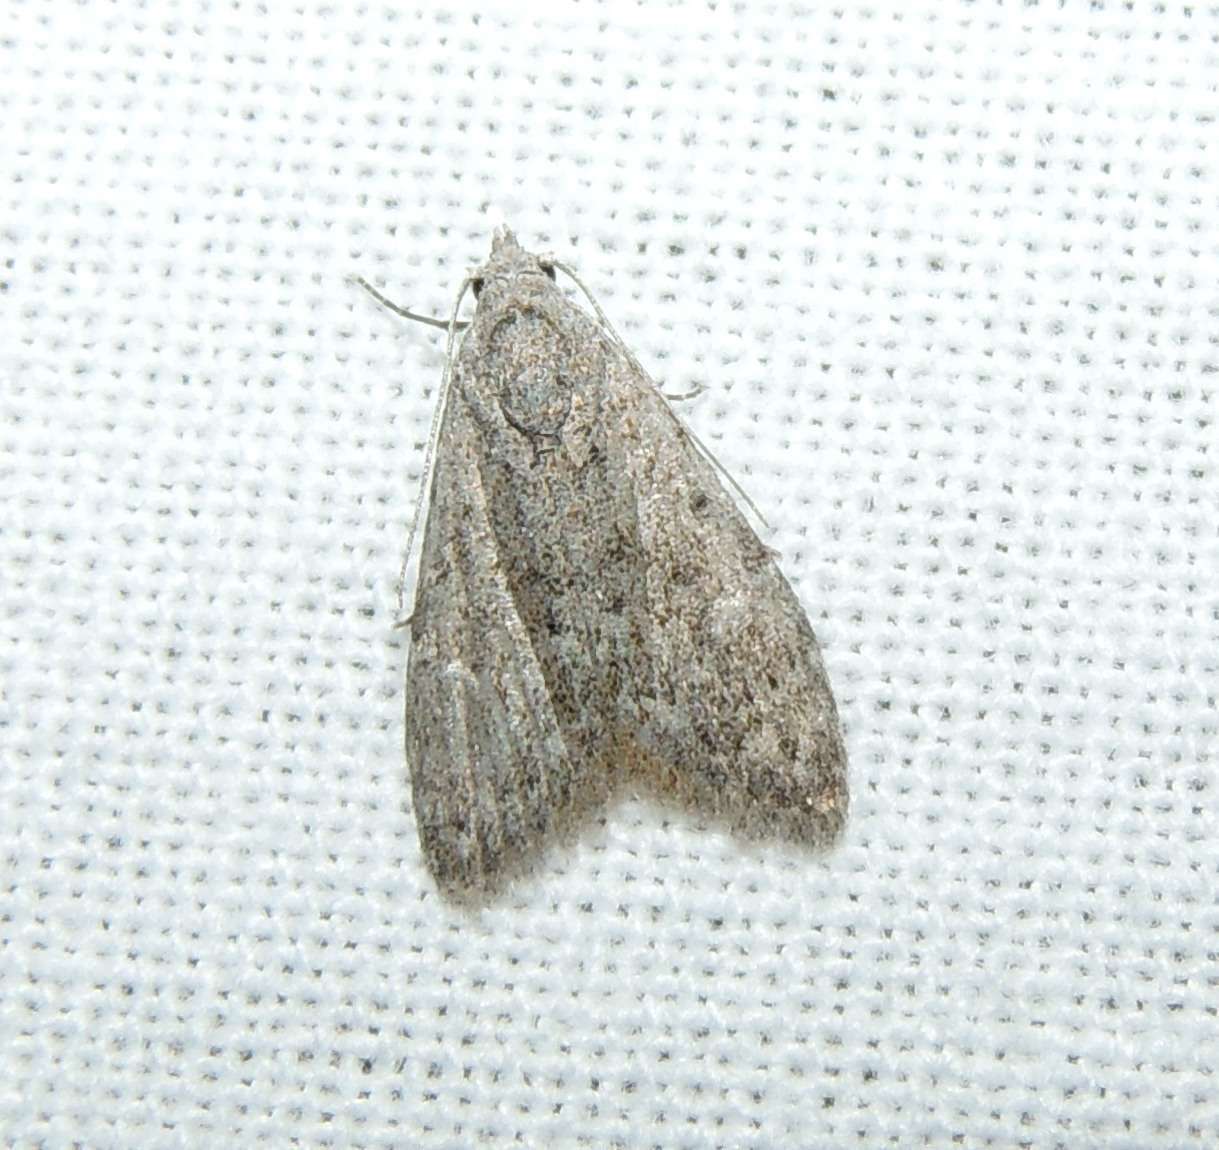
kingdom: Animalia
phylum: Arthropoda
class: Insecta
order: Lepidoptera
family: Nolidae
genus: Nola
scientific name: Nola pleurosema
